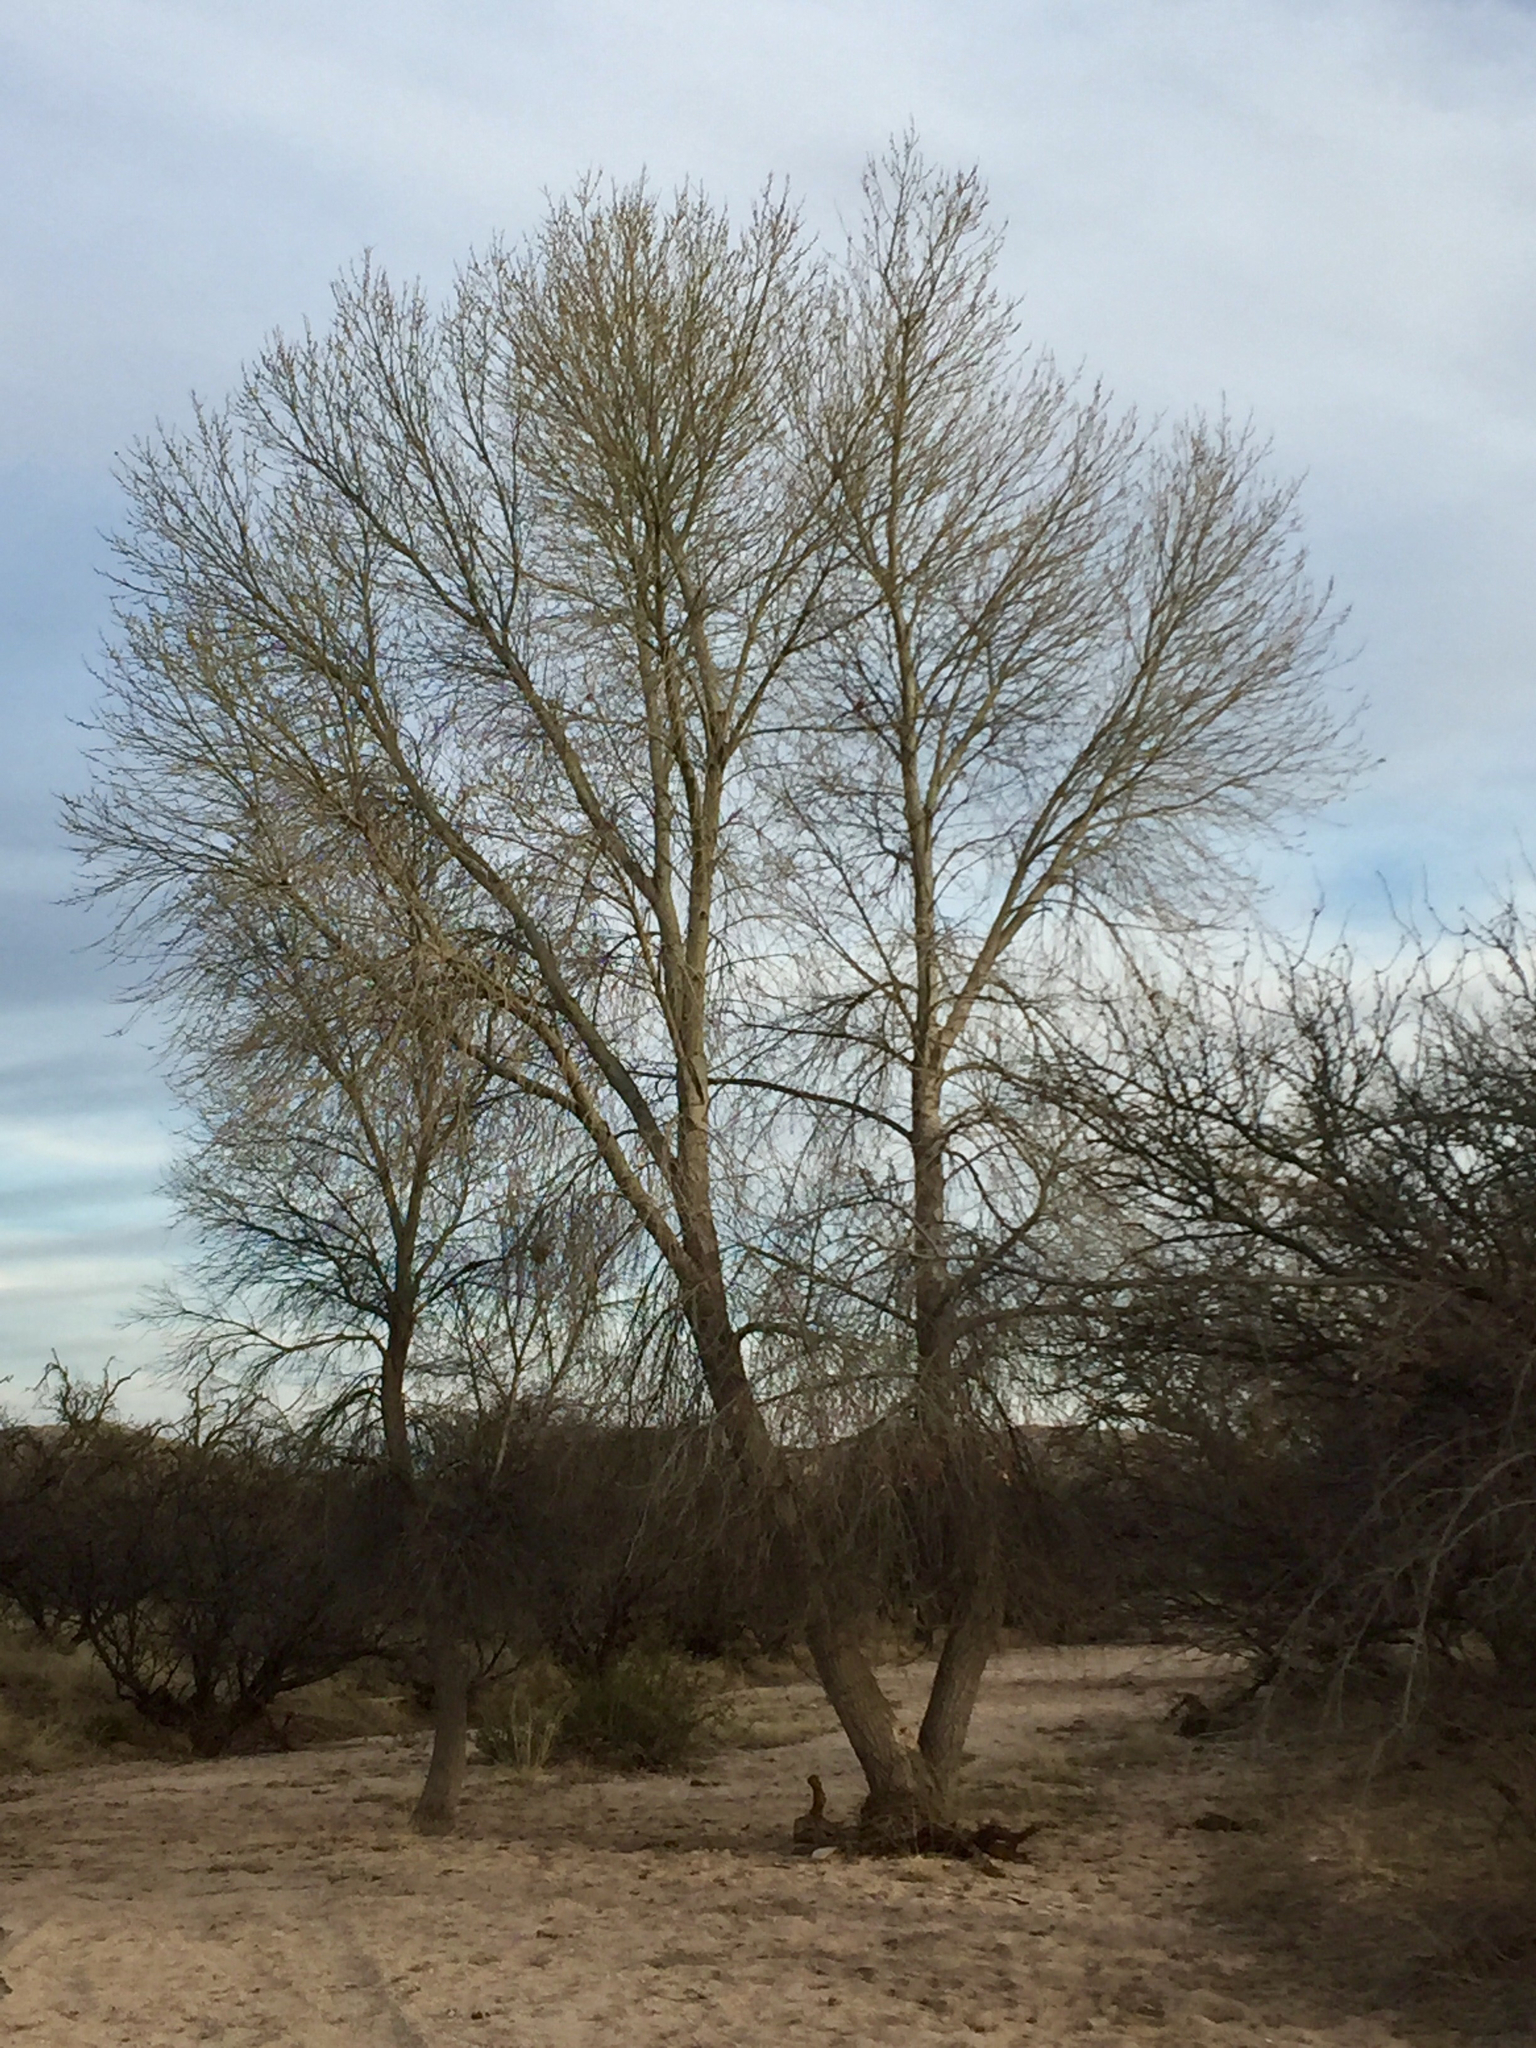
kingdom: Plantae
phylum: Tracheophyta
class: Magnoliopsida
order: Malpighiales
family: Salicaceae
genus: Populus
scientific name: Populus fremontii
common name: Fremont's cottonwood
